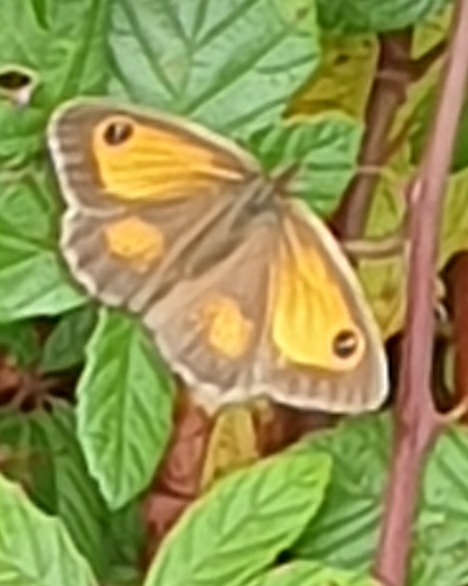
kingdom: Animalia
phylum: Arthropoda
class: Insecta
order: Lepidoptera
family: Nymphalidae
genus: Pyronia
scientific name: Pyronia tithonus
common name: Gatekeeper
